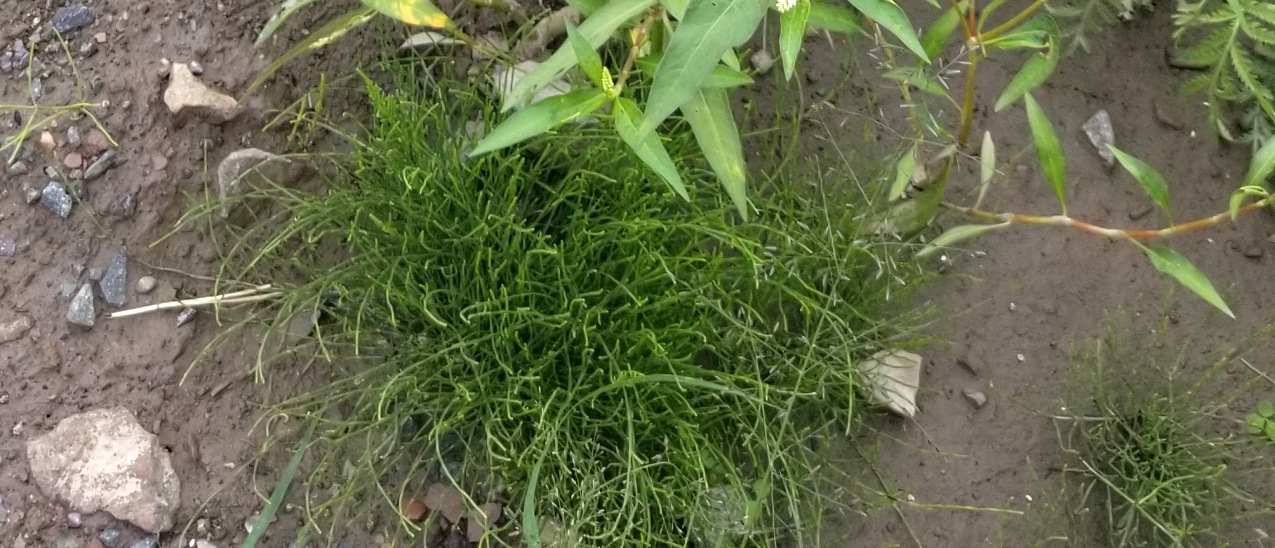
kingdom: Plantae
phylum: Tracheophyta
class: Polypodiopsida
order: Equisetales
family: Equisetaceae
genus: Equisetum
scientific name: Equisetum arvense
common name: Field horsetail
